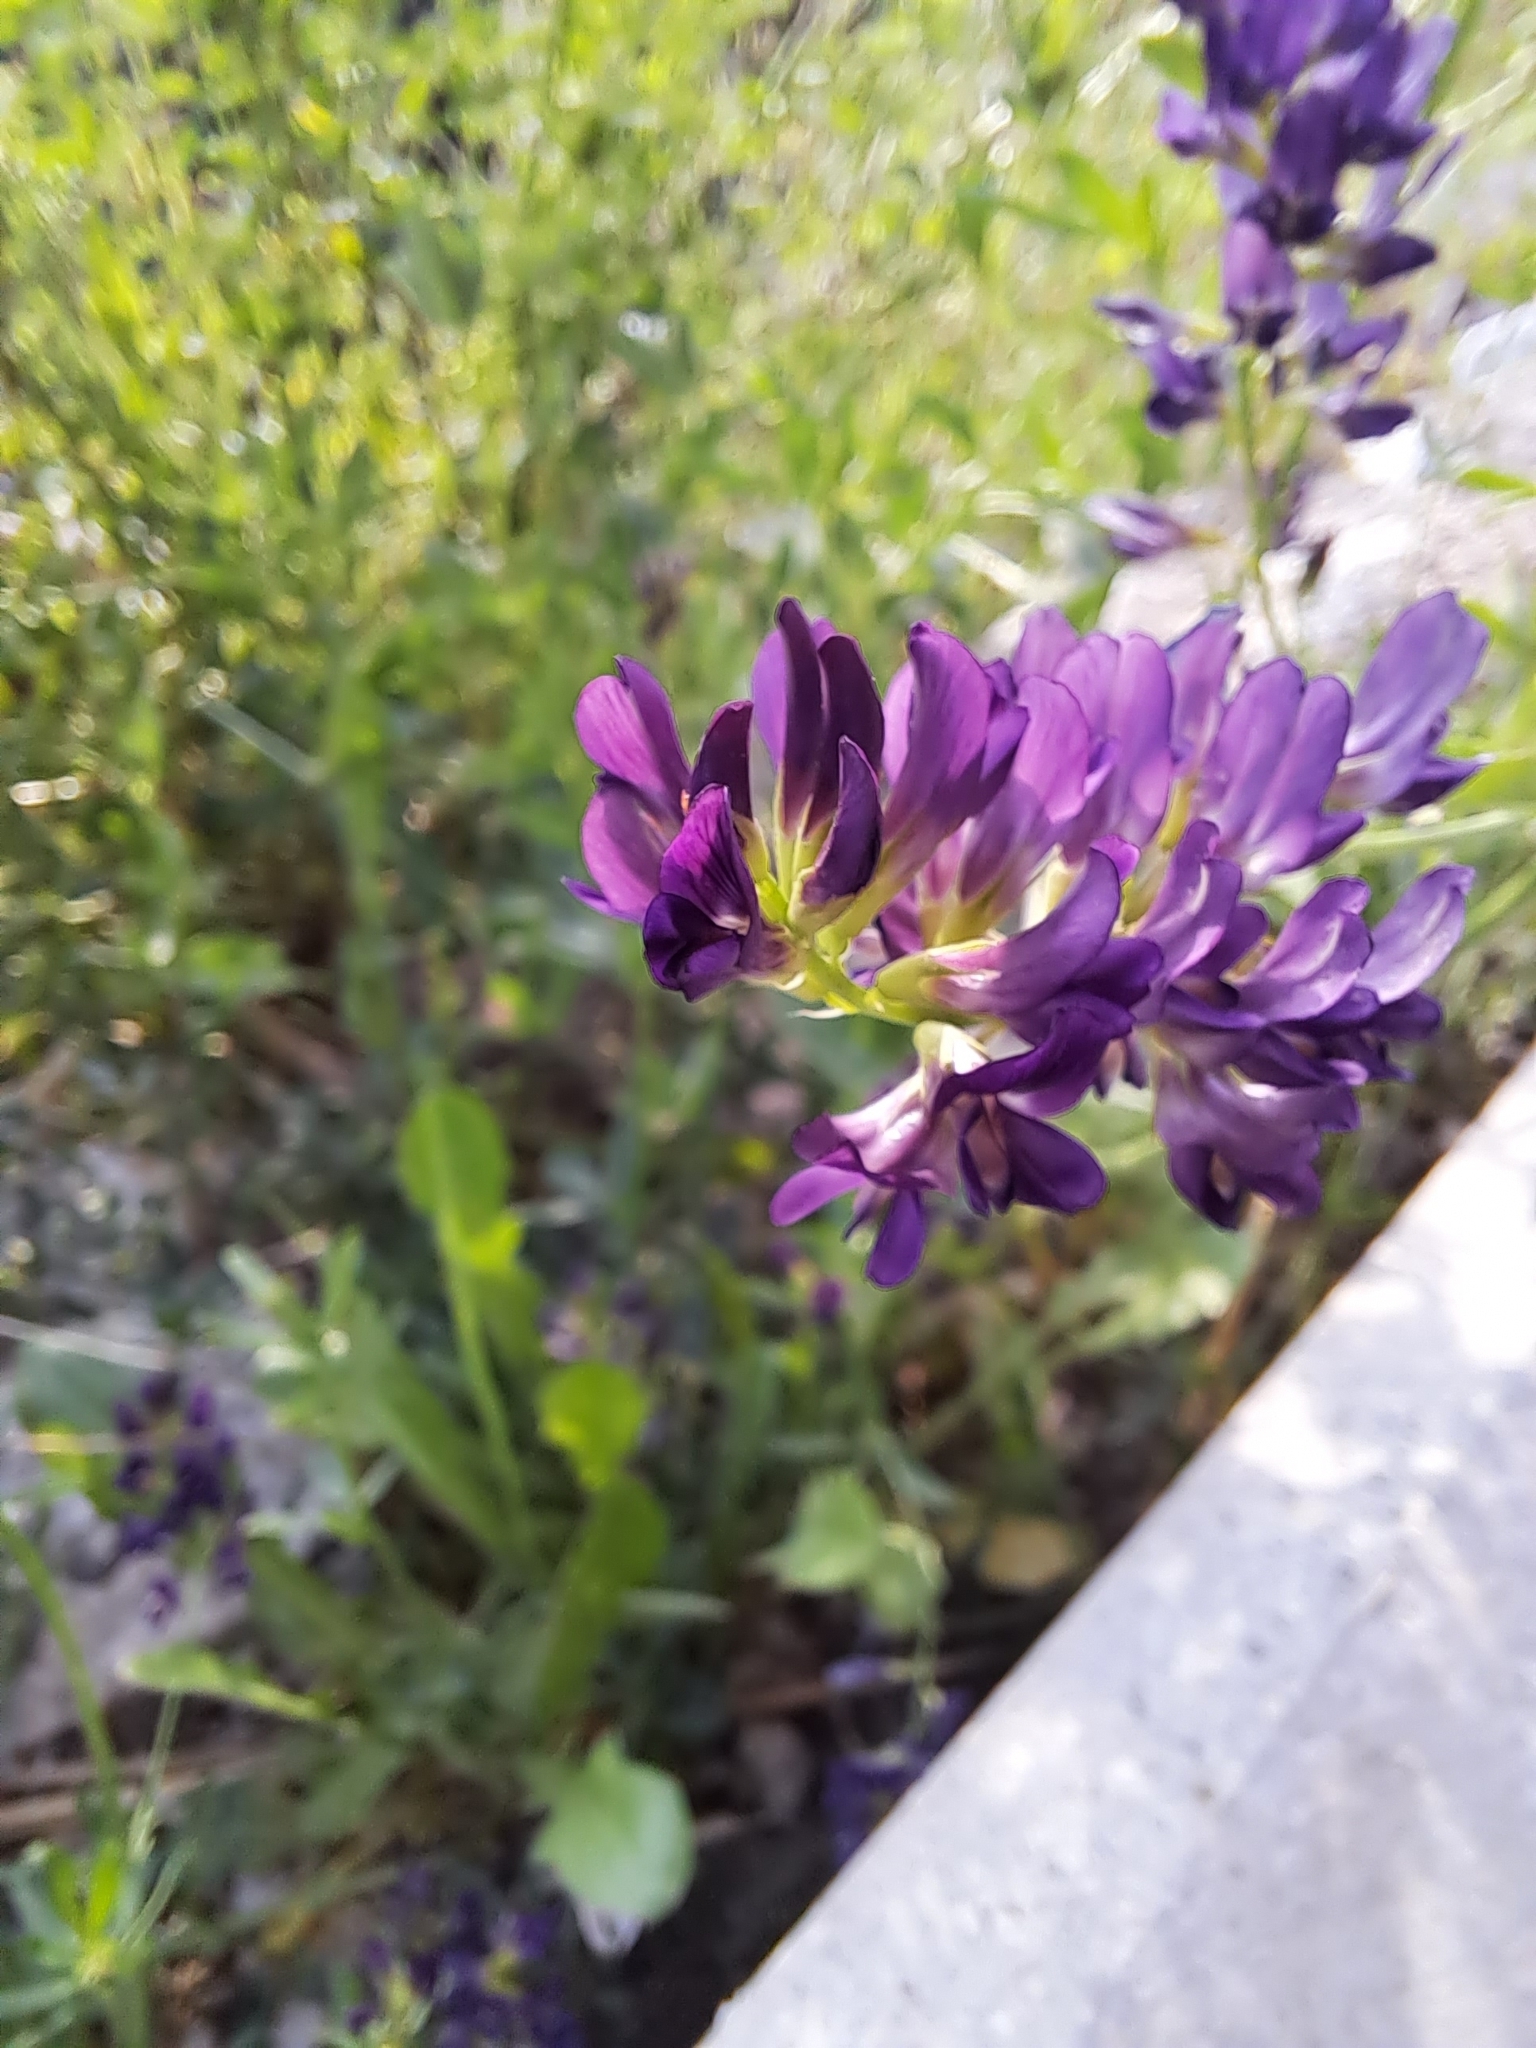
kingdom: Plantae
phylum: Tracheophyta
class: Magnoliopsida
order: Fabales
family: Fabaceae
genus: Medicago
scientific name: Medicago sativa
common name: Alfalfa
